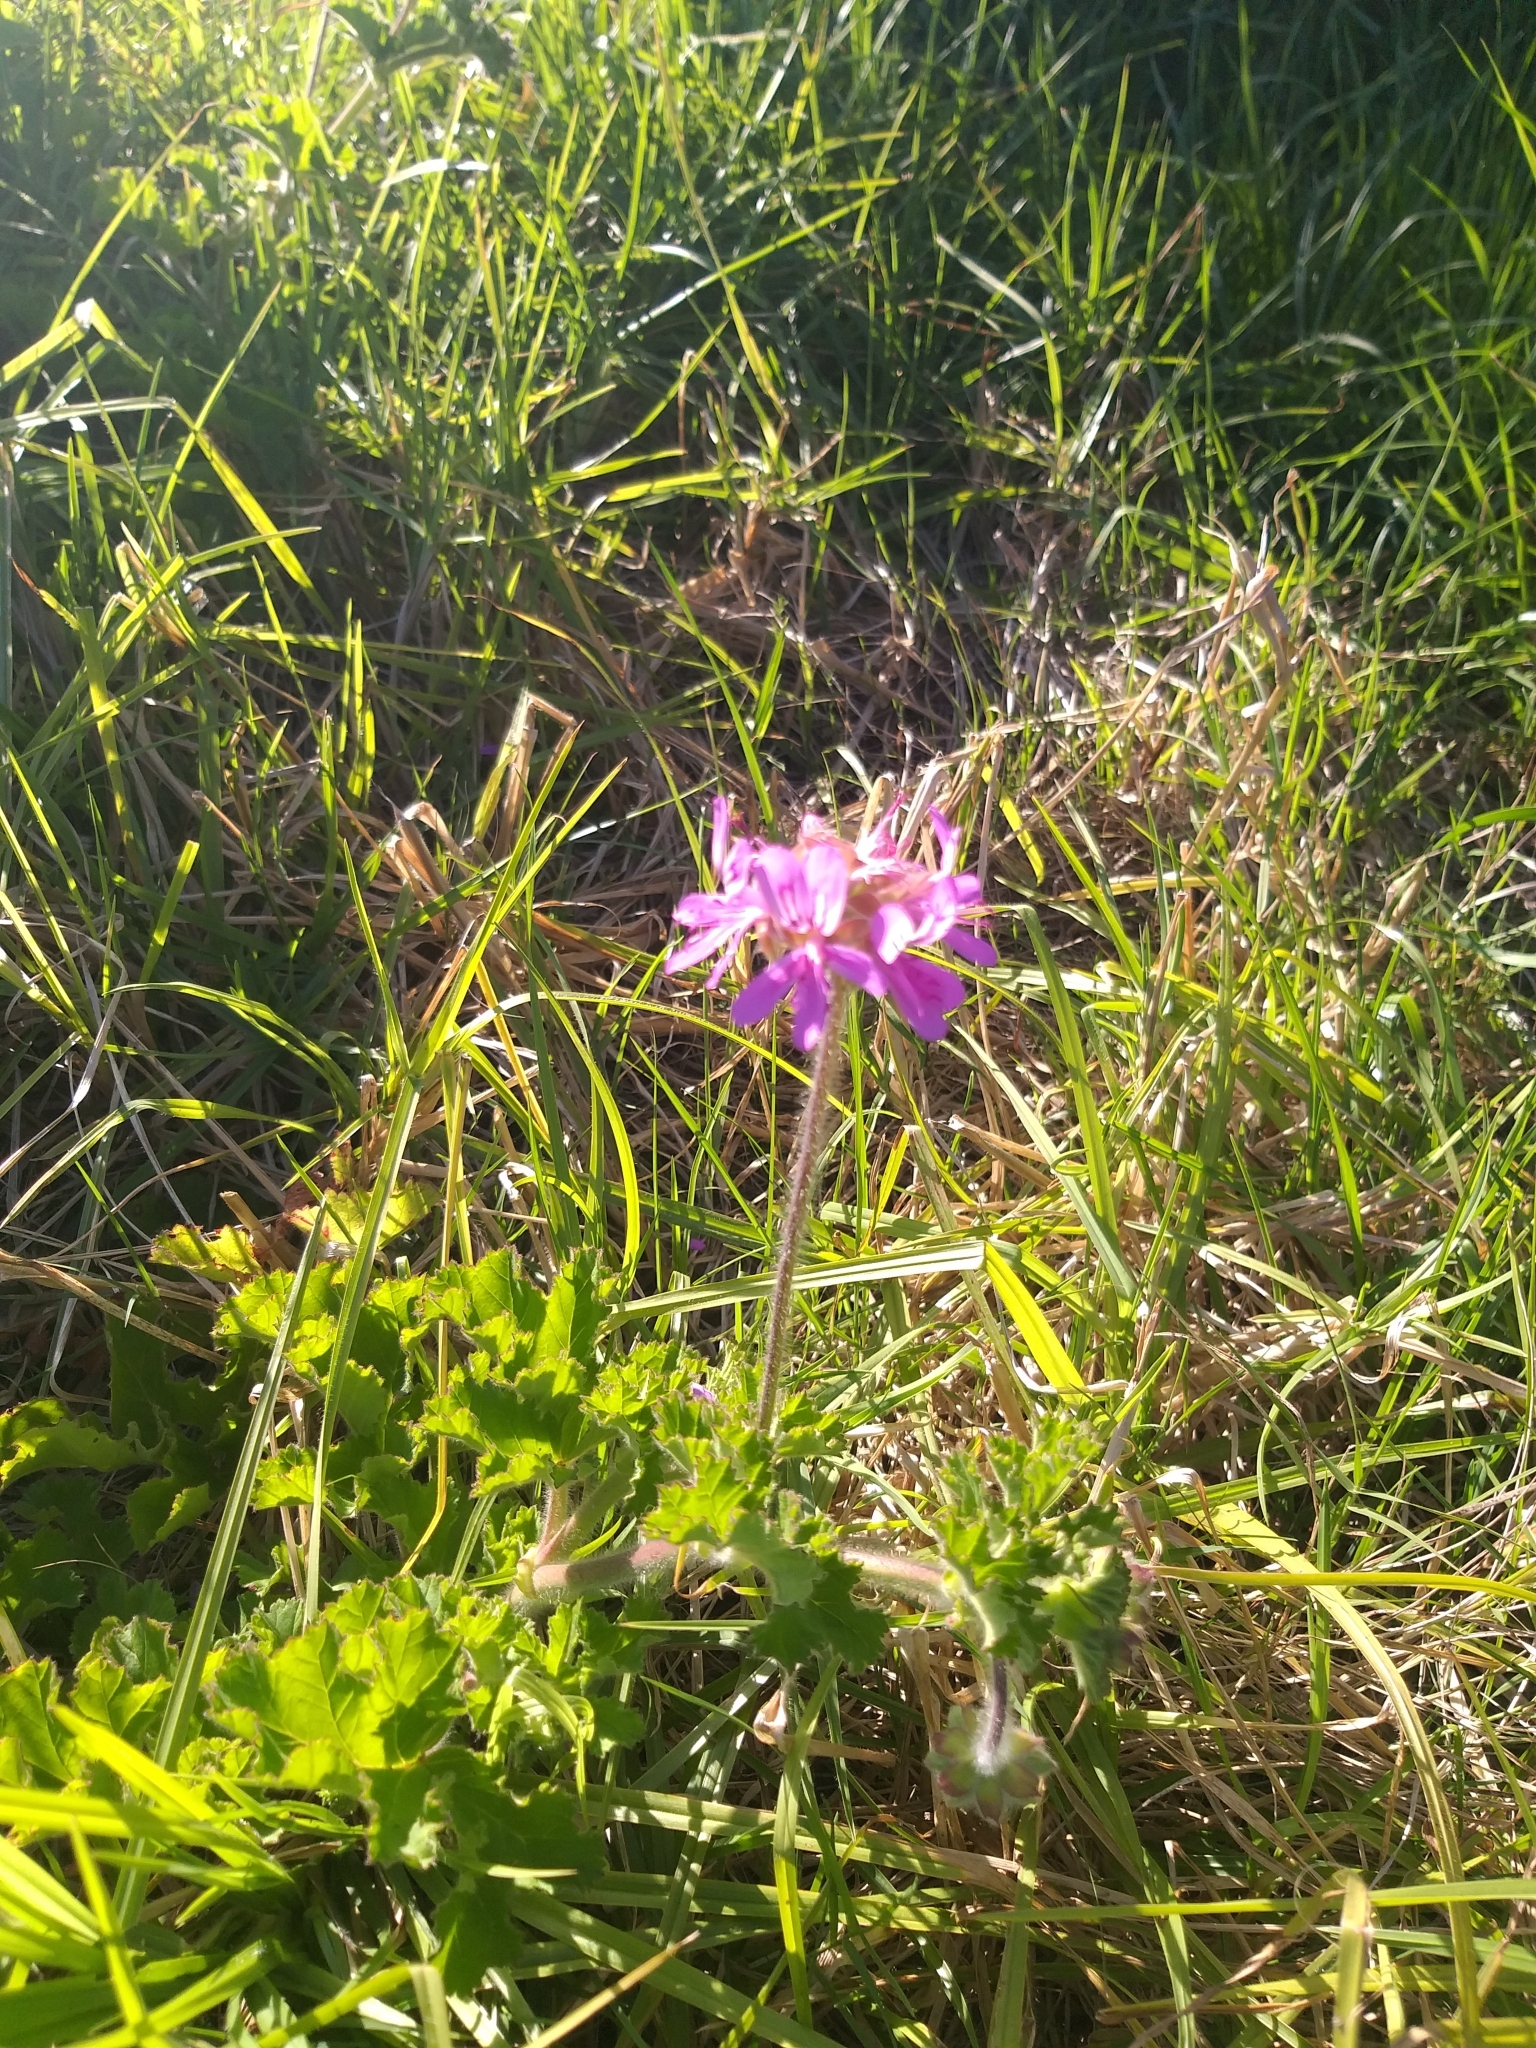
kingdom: Plantae
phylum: Tracheophyta
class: Magnoliopsida
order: Geraniales
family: Geraniaceae
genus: Pelargonium
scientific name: Pelargonium capitatum
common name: Rose scented geranium
